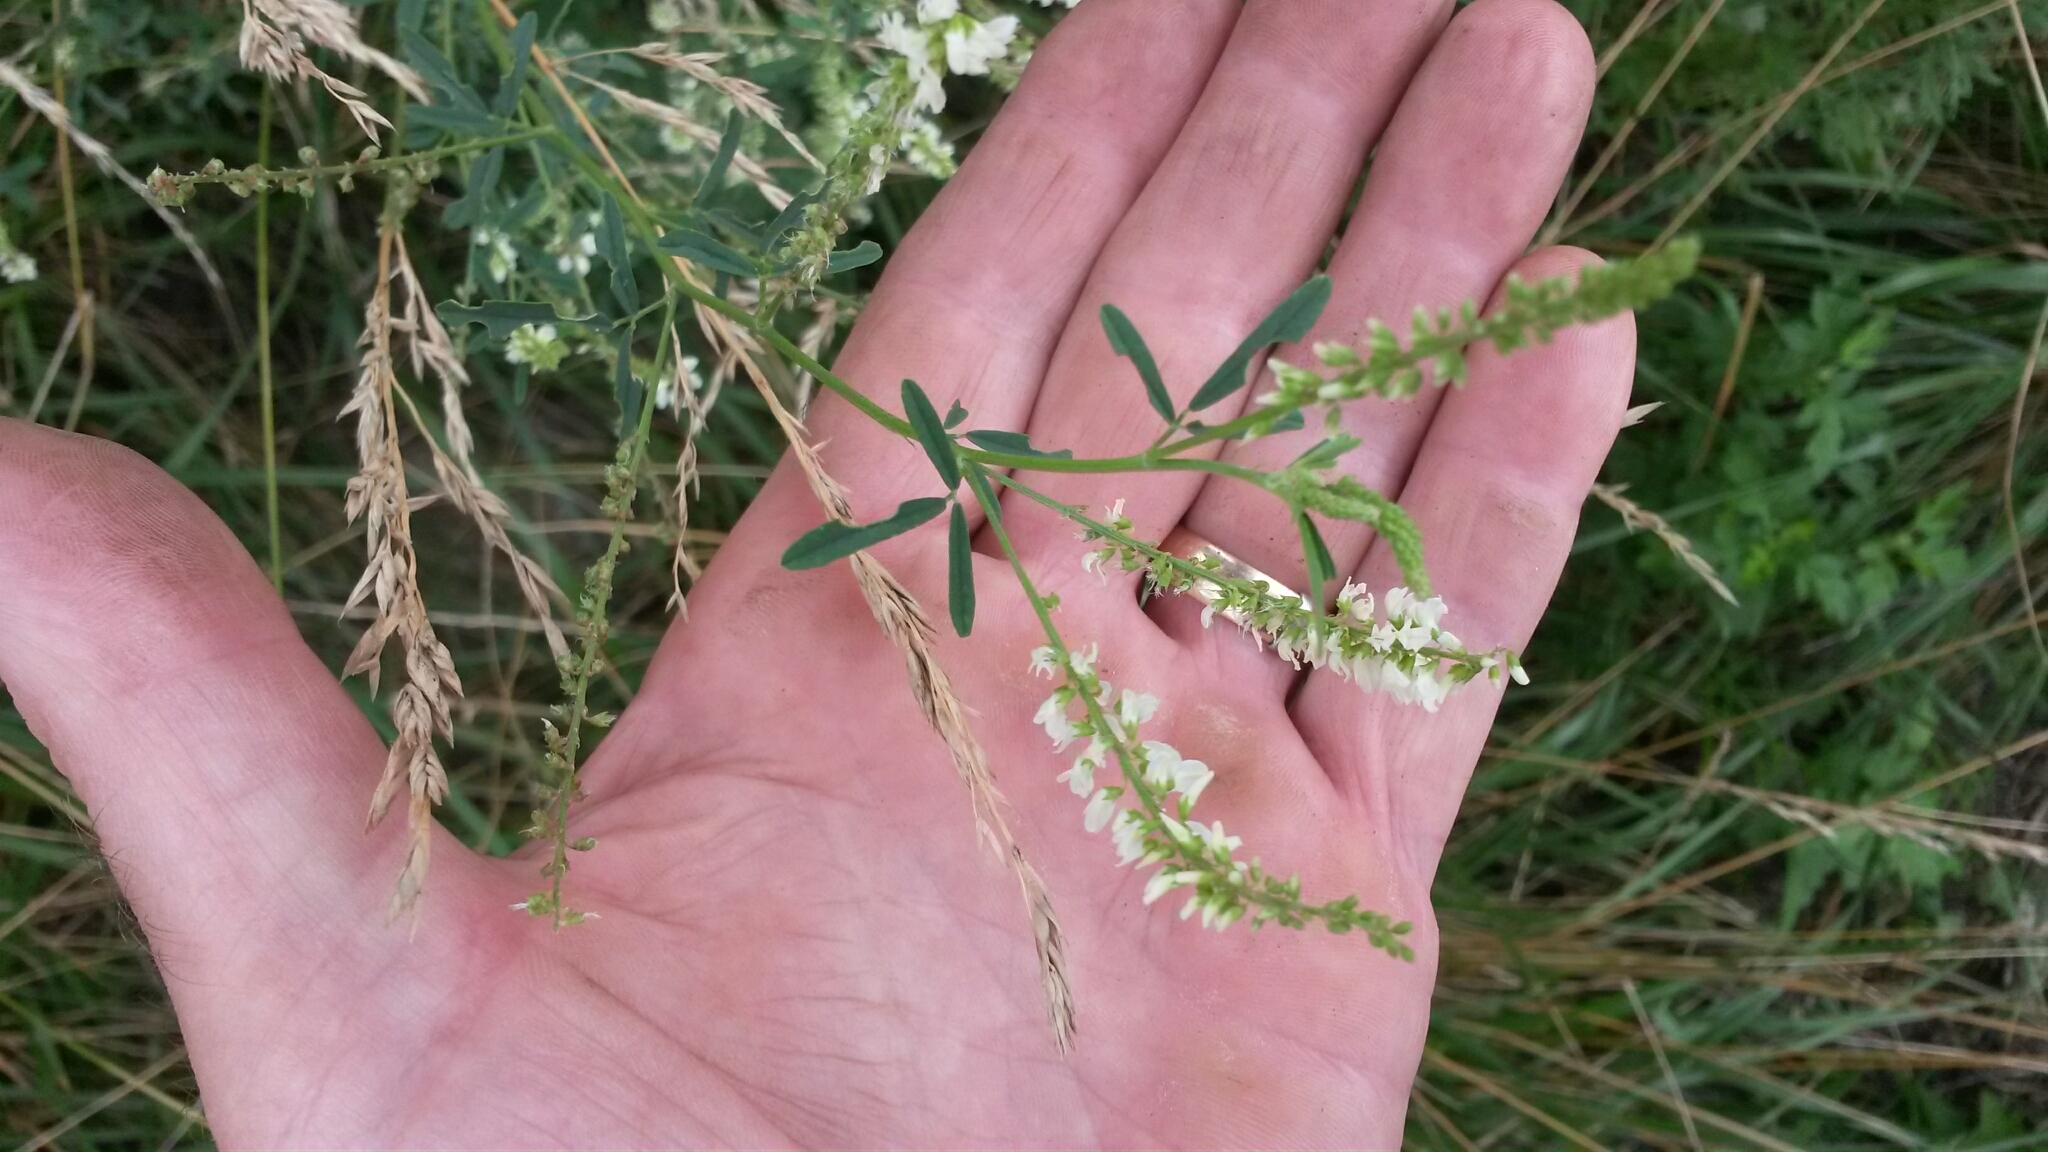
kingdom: Plantae
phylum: Tracheophyta
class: Magnoliopsida
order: Fabales
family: Fabaceae
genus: Melilotus
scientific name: Melilotus albus
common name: White melilot
